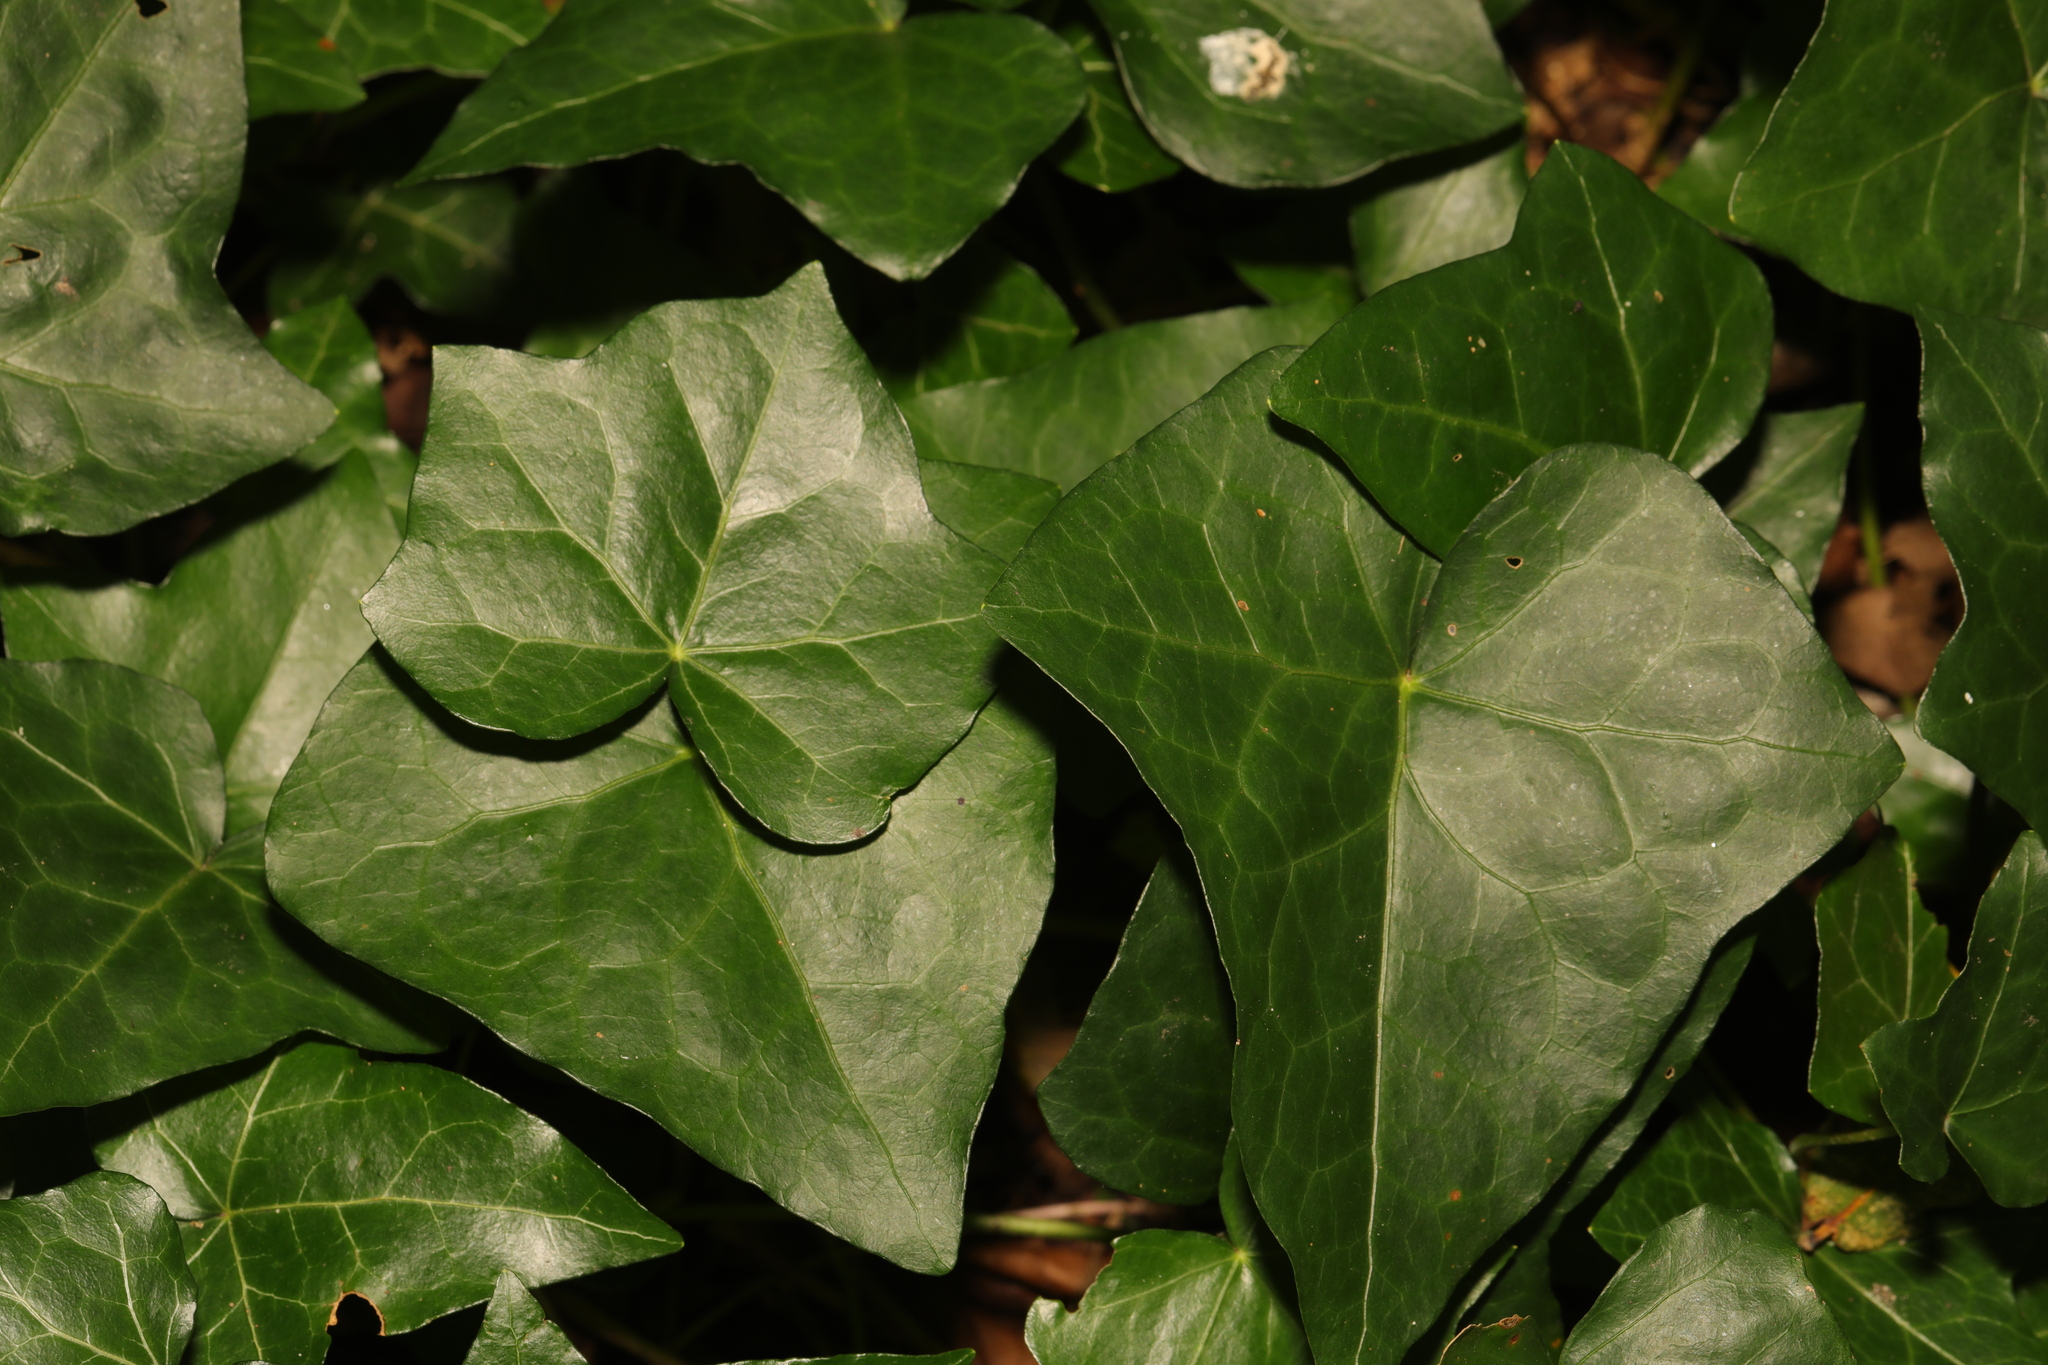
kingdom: Plantae
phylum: Tracheophyta
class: Magnoliopsida
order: Apiales
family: Araliaceae
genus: Hedera
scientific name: Hedera helix
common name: Ivy
